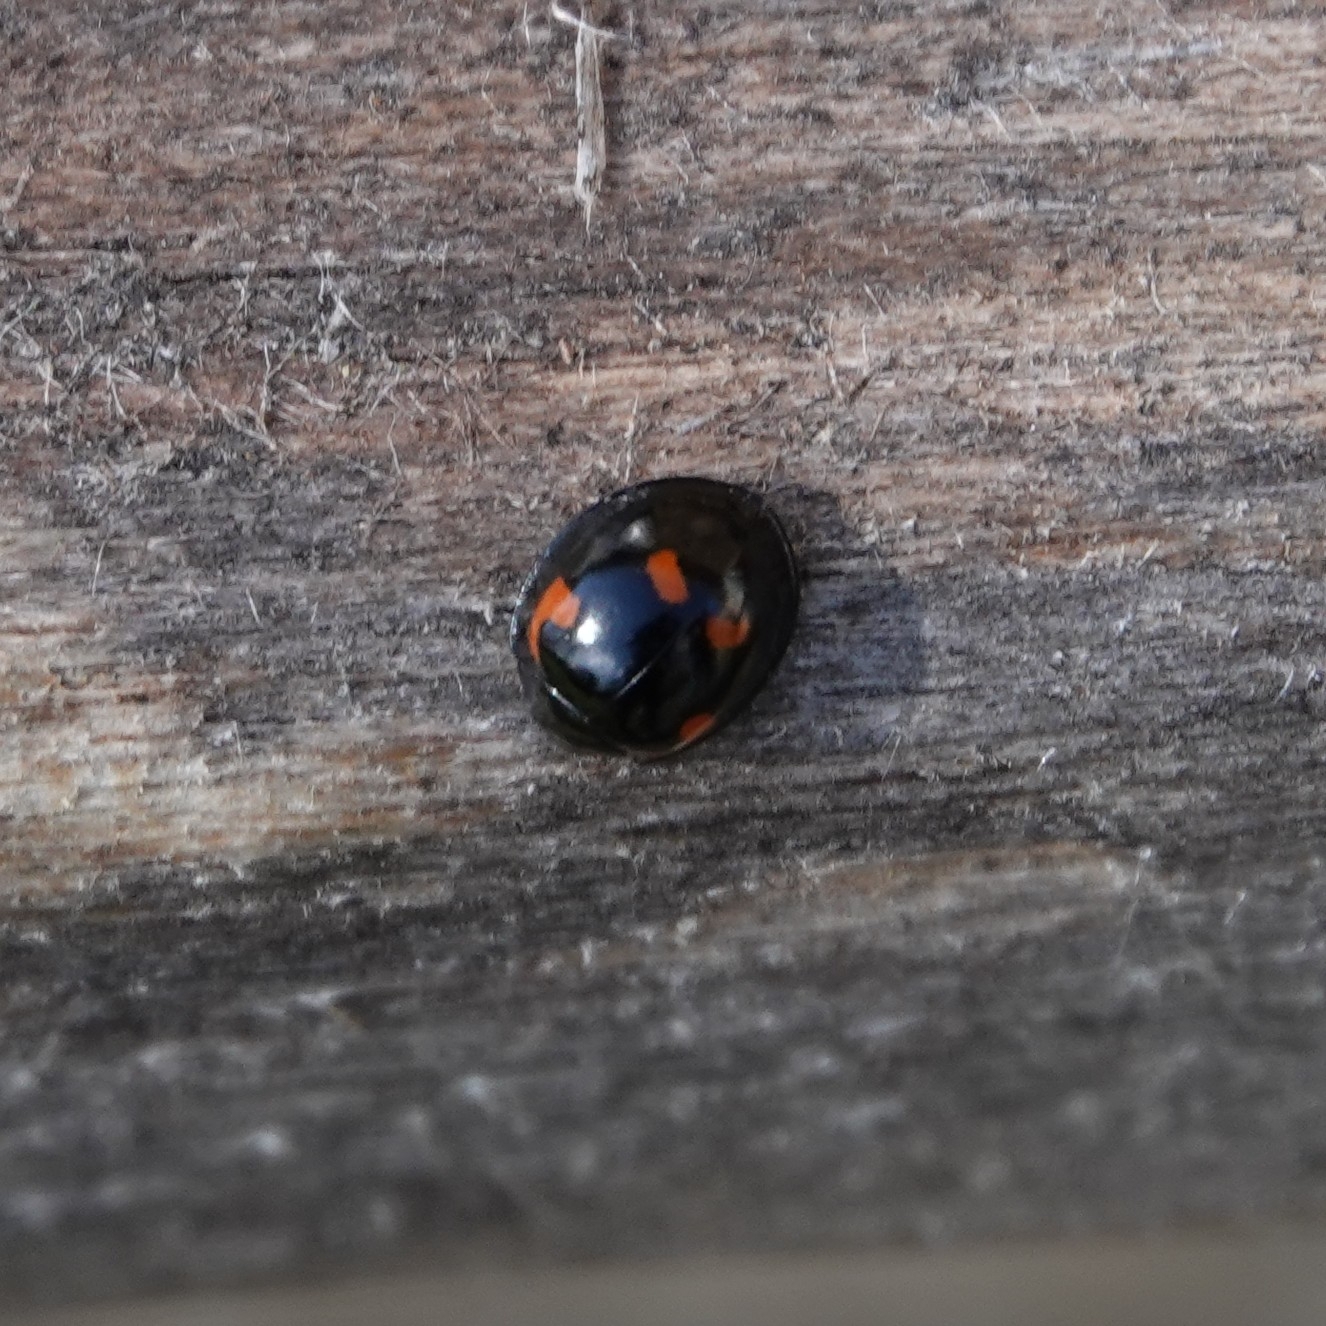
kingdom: Animalia
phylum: Arthropoda
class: Insecta
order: Coleoptera
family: Coccinellidae
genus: Brumus
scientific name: Brumus quadripustulatus
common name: Ladybird beetle
